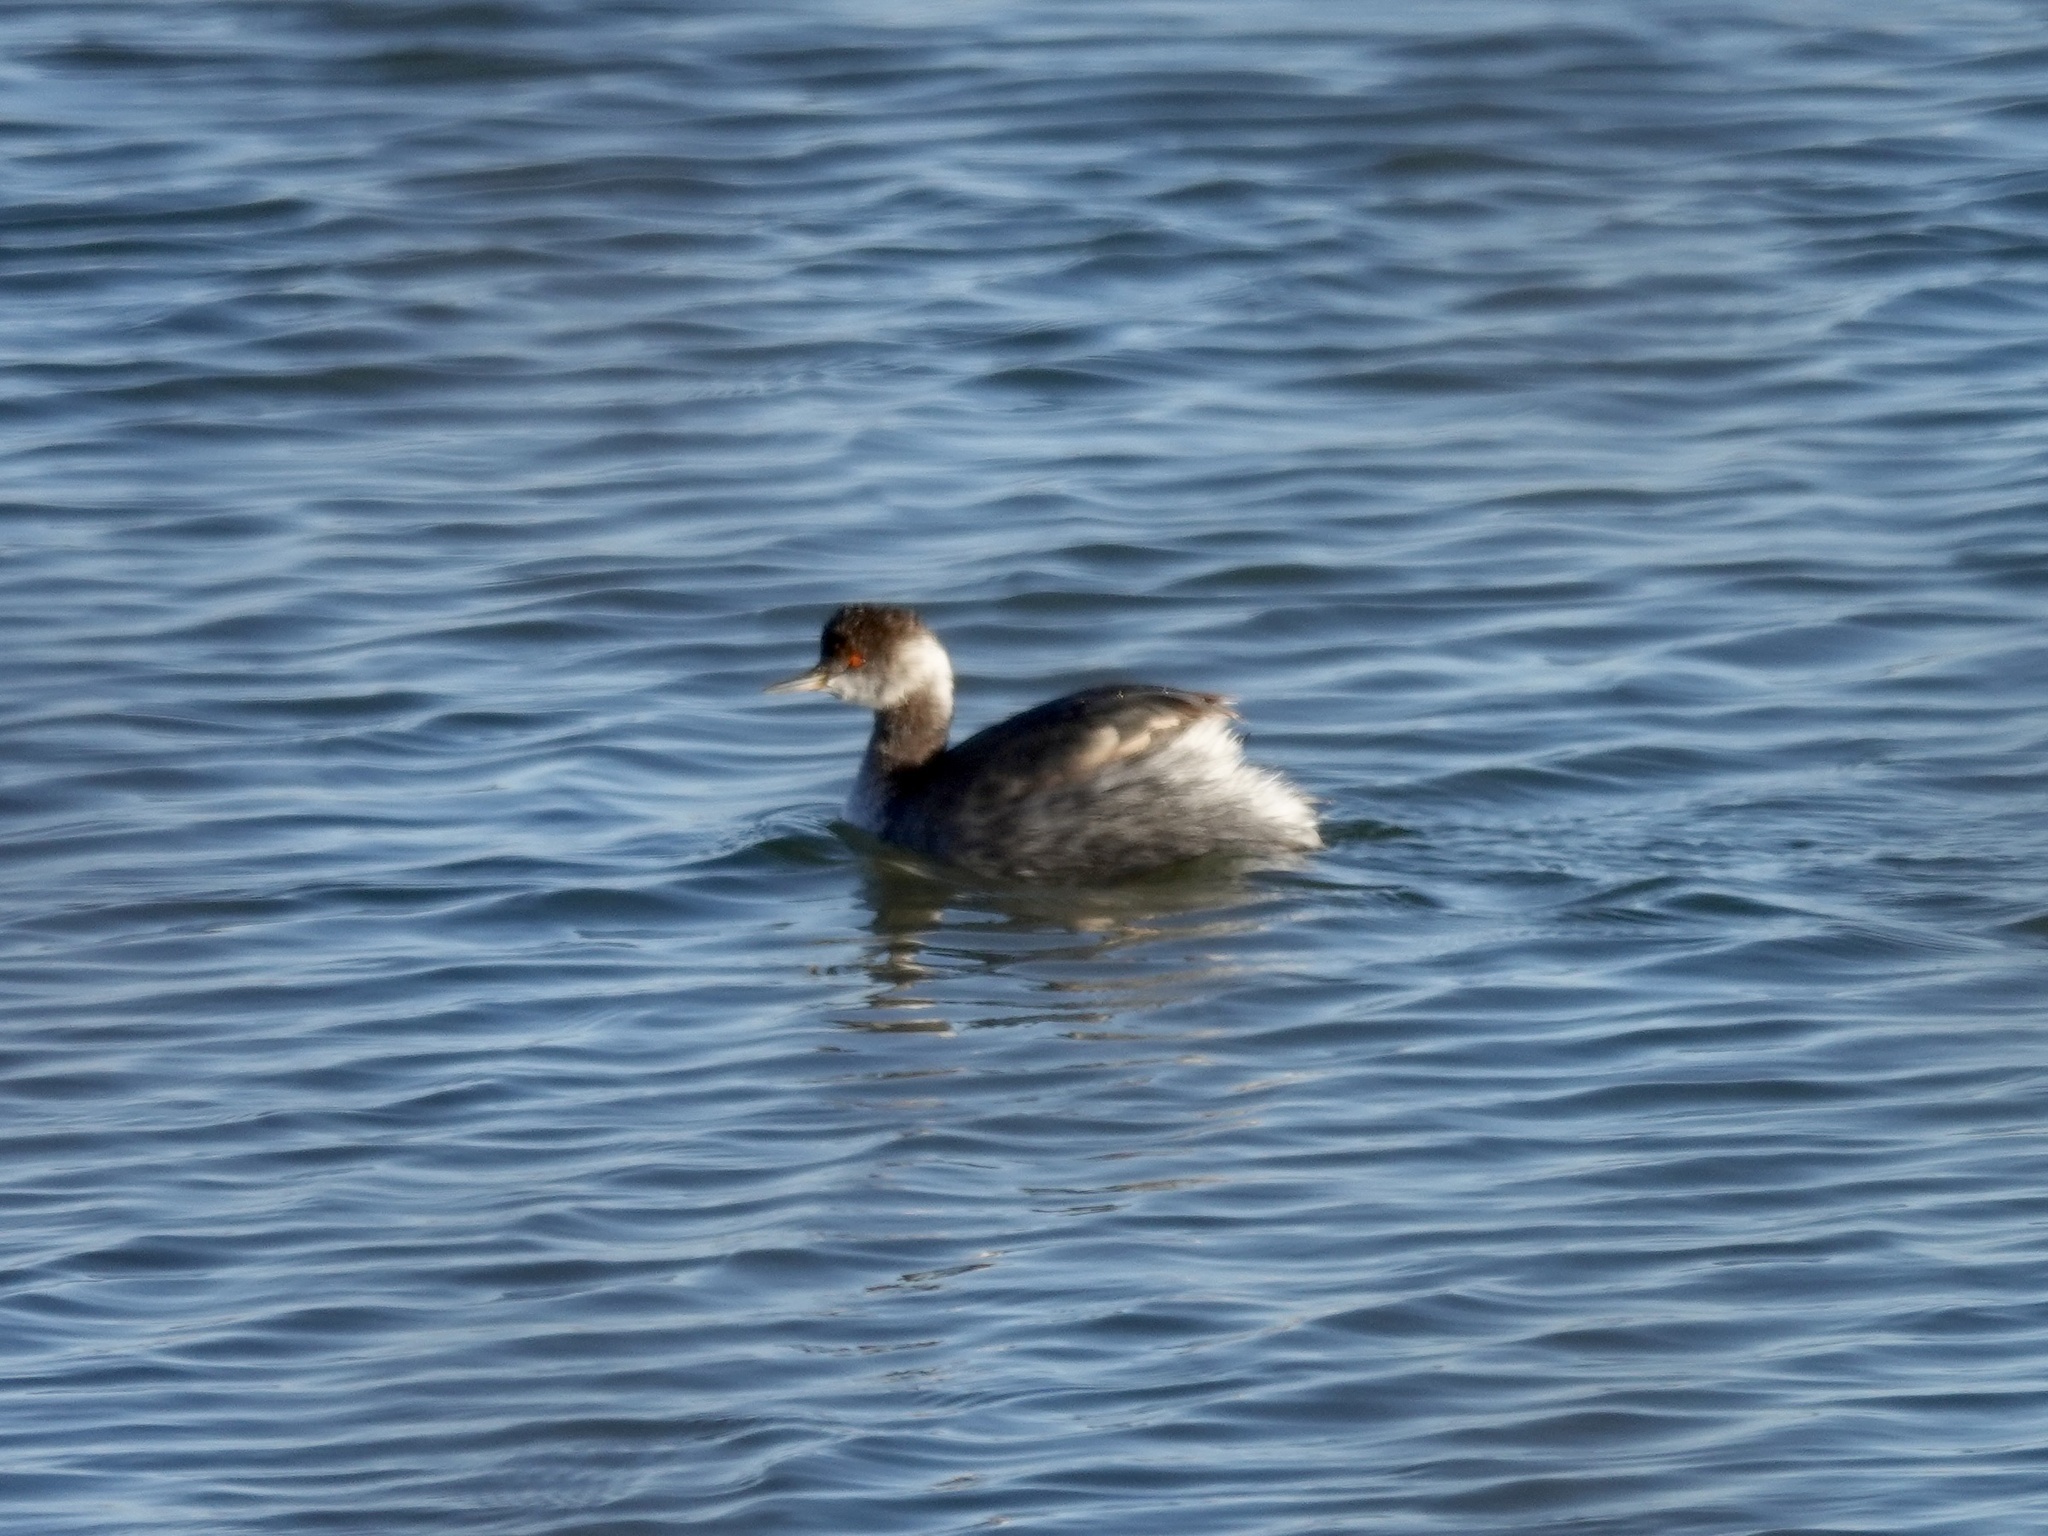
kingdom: Animalia
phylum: Chordata
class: Aves
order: Podicipediformes
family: Podicipedidae
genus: Podiceps
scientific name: Podiceps nigricollis
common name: Black-necked grebe
